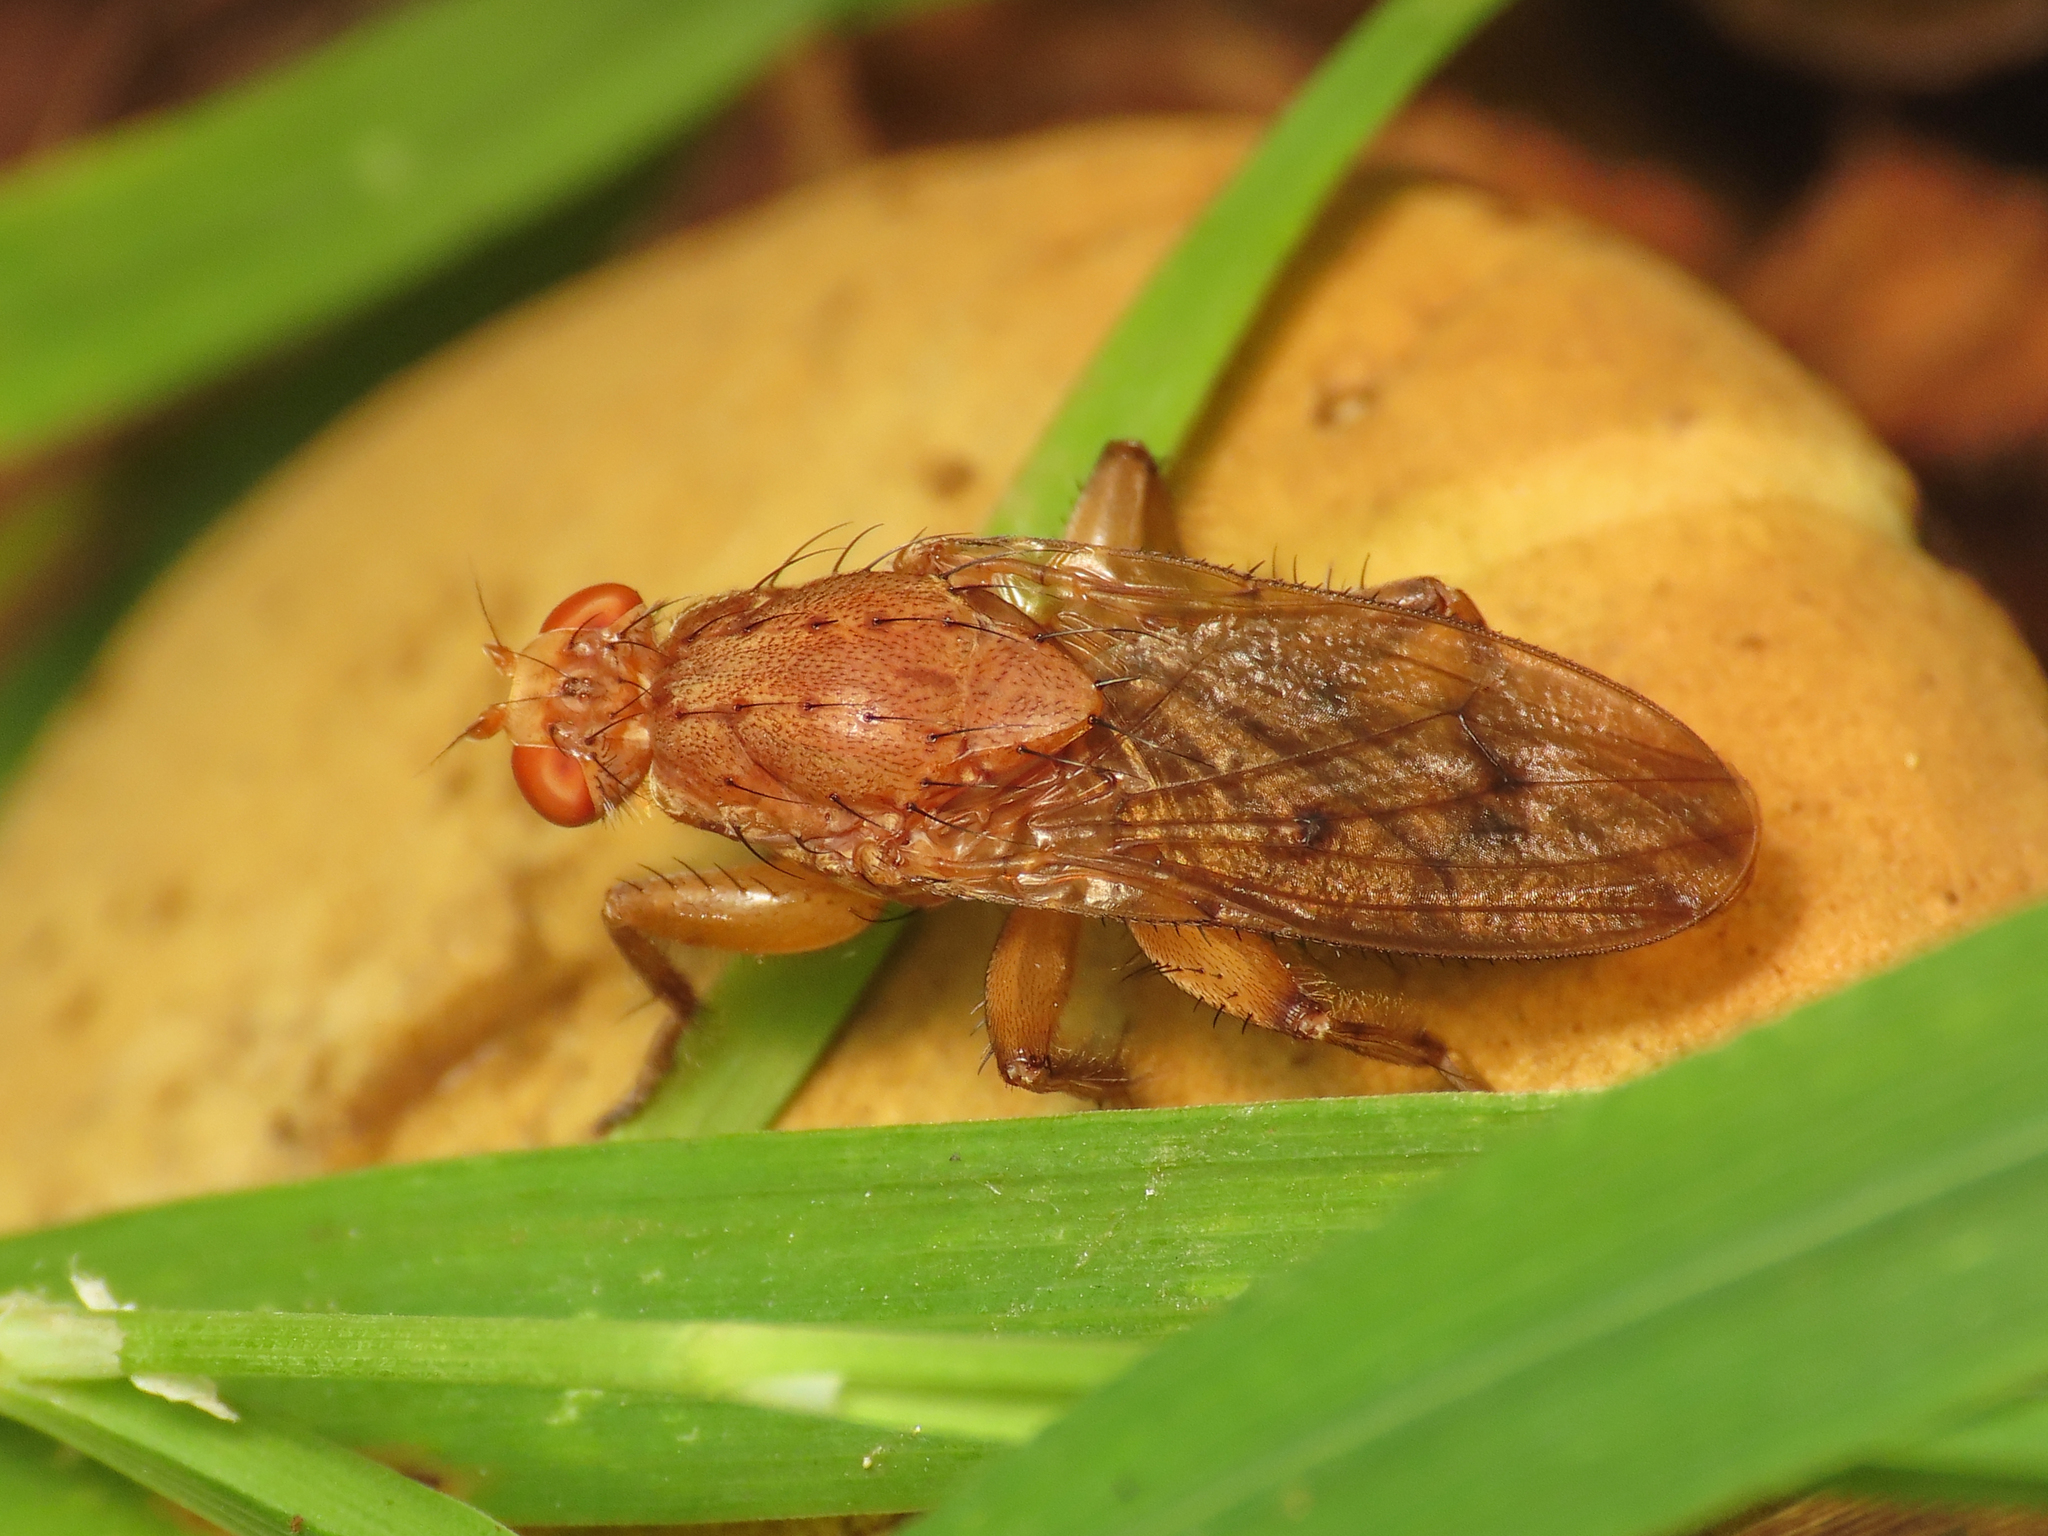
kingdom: Animalia
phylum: Arthropoda
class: Insecta
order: Diptera
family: Heleomyzidae
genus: Suillia
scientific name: Suillia gigantea
